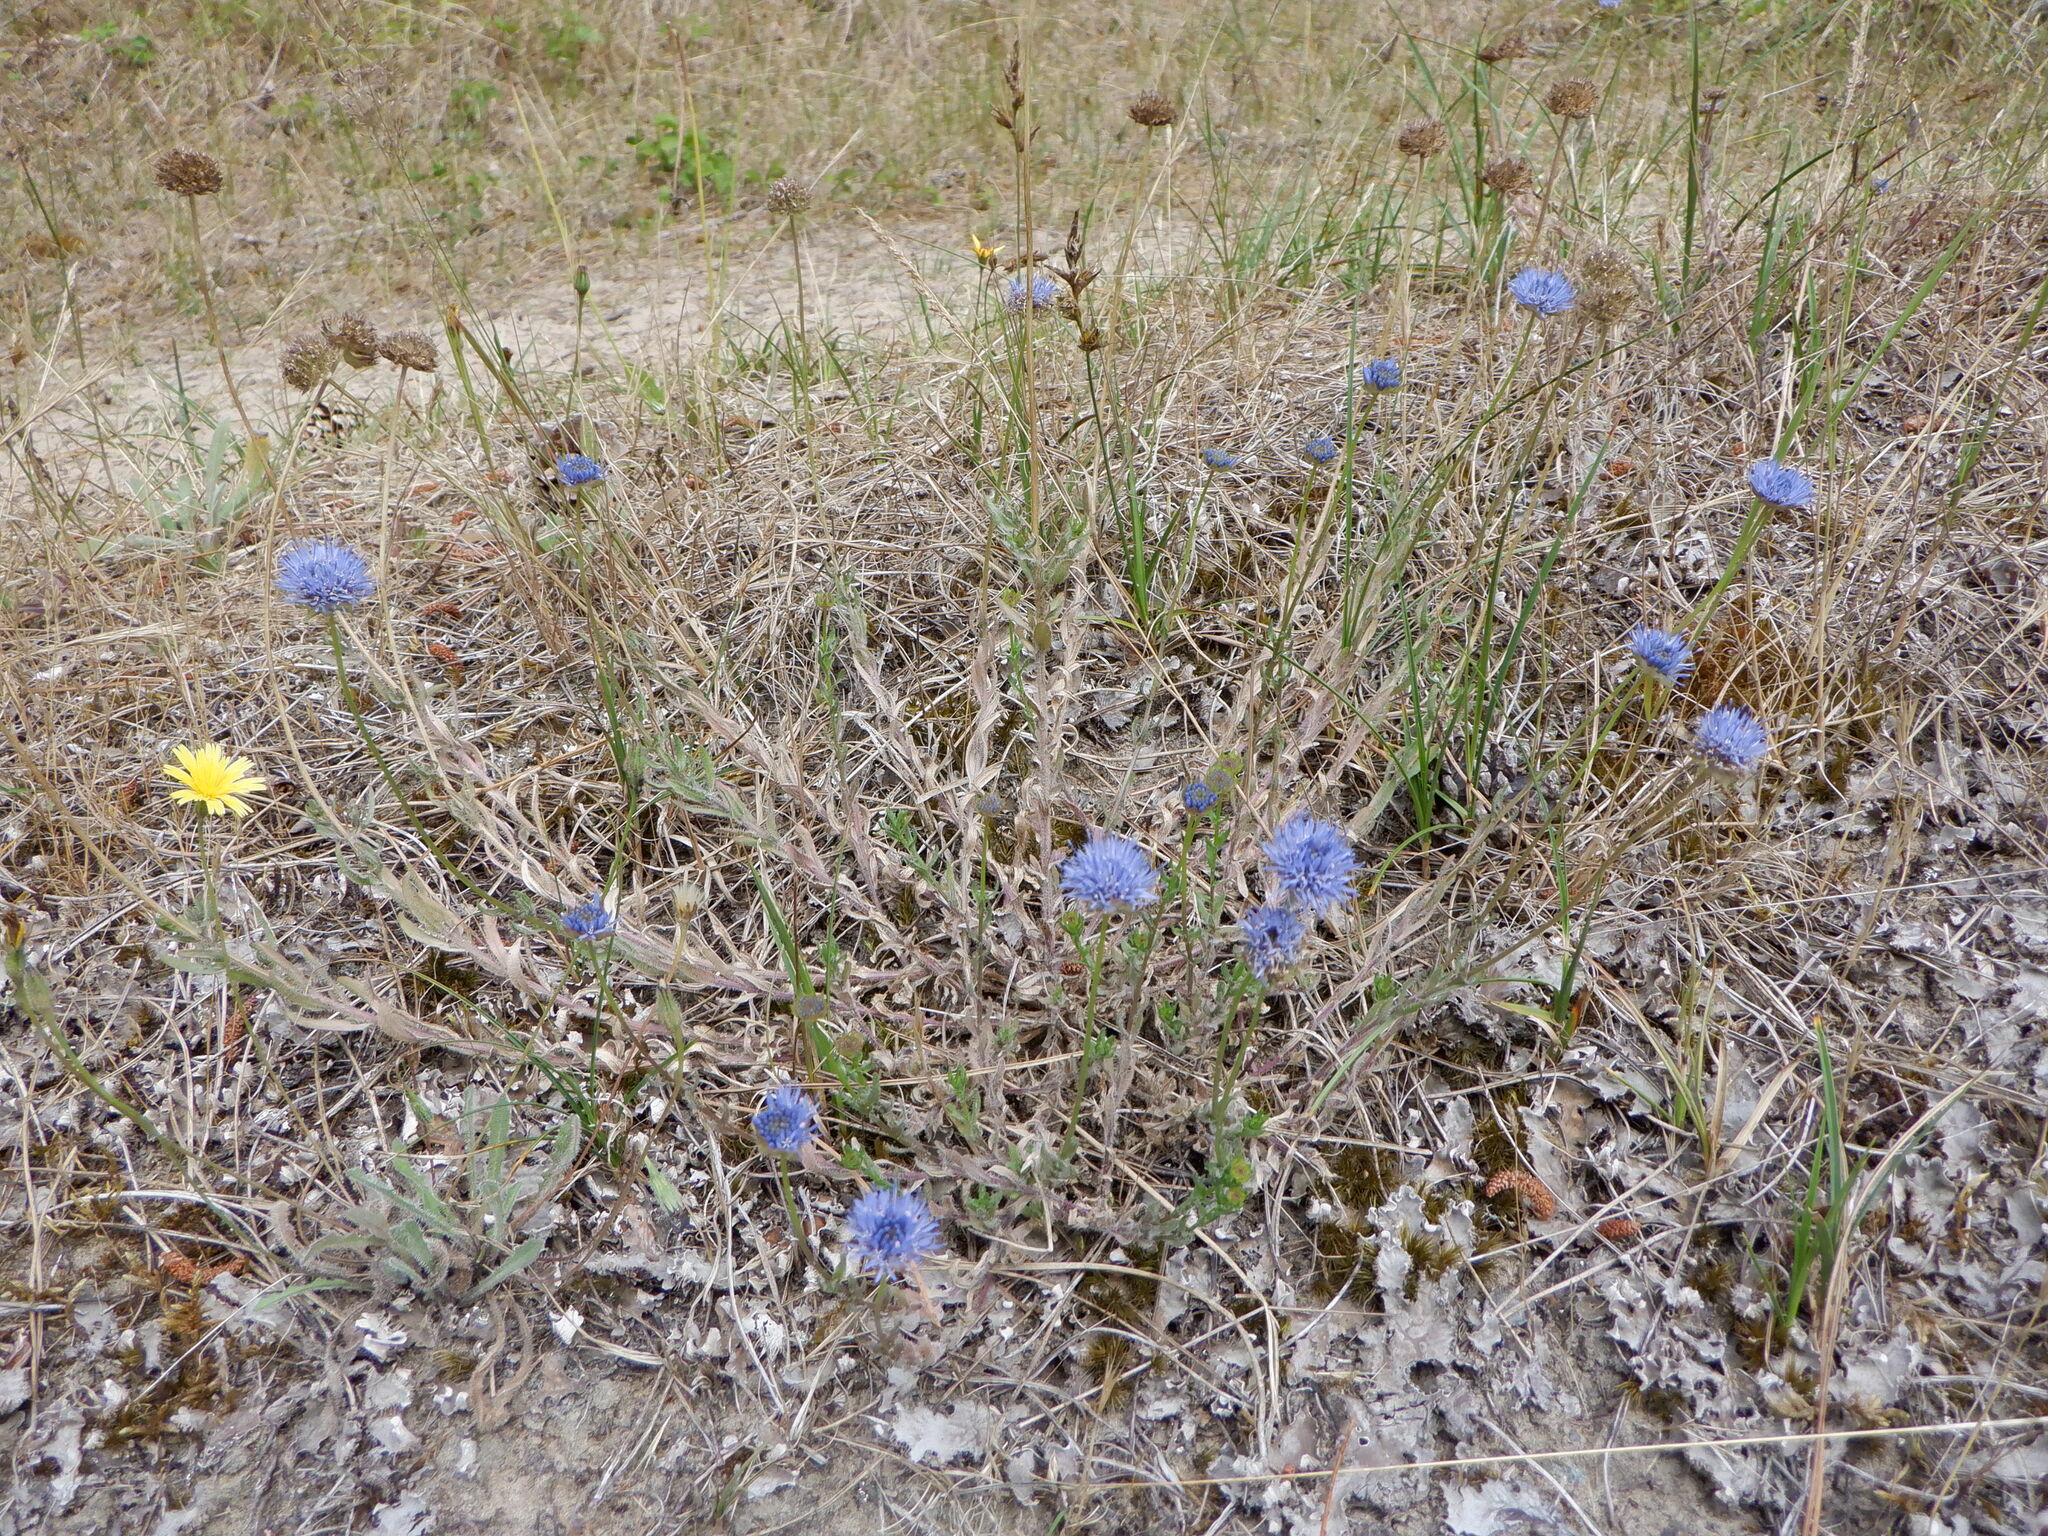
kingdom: Plantae
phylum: Tracheophyta
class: Magnoliopsida
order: Asterales
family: Campanulaceae
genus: Jasione
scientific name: Jasione montana
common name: Sheep's-bit
